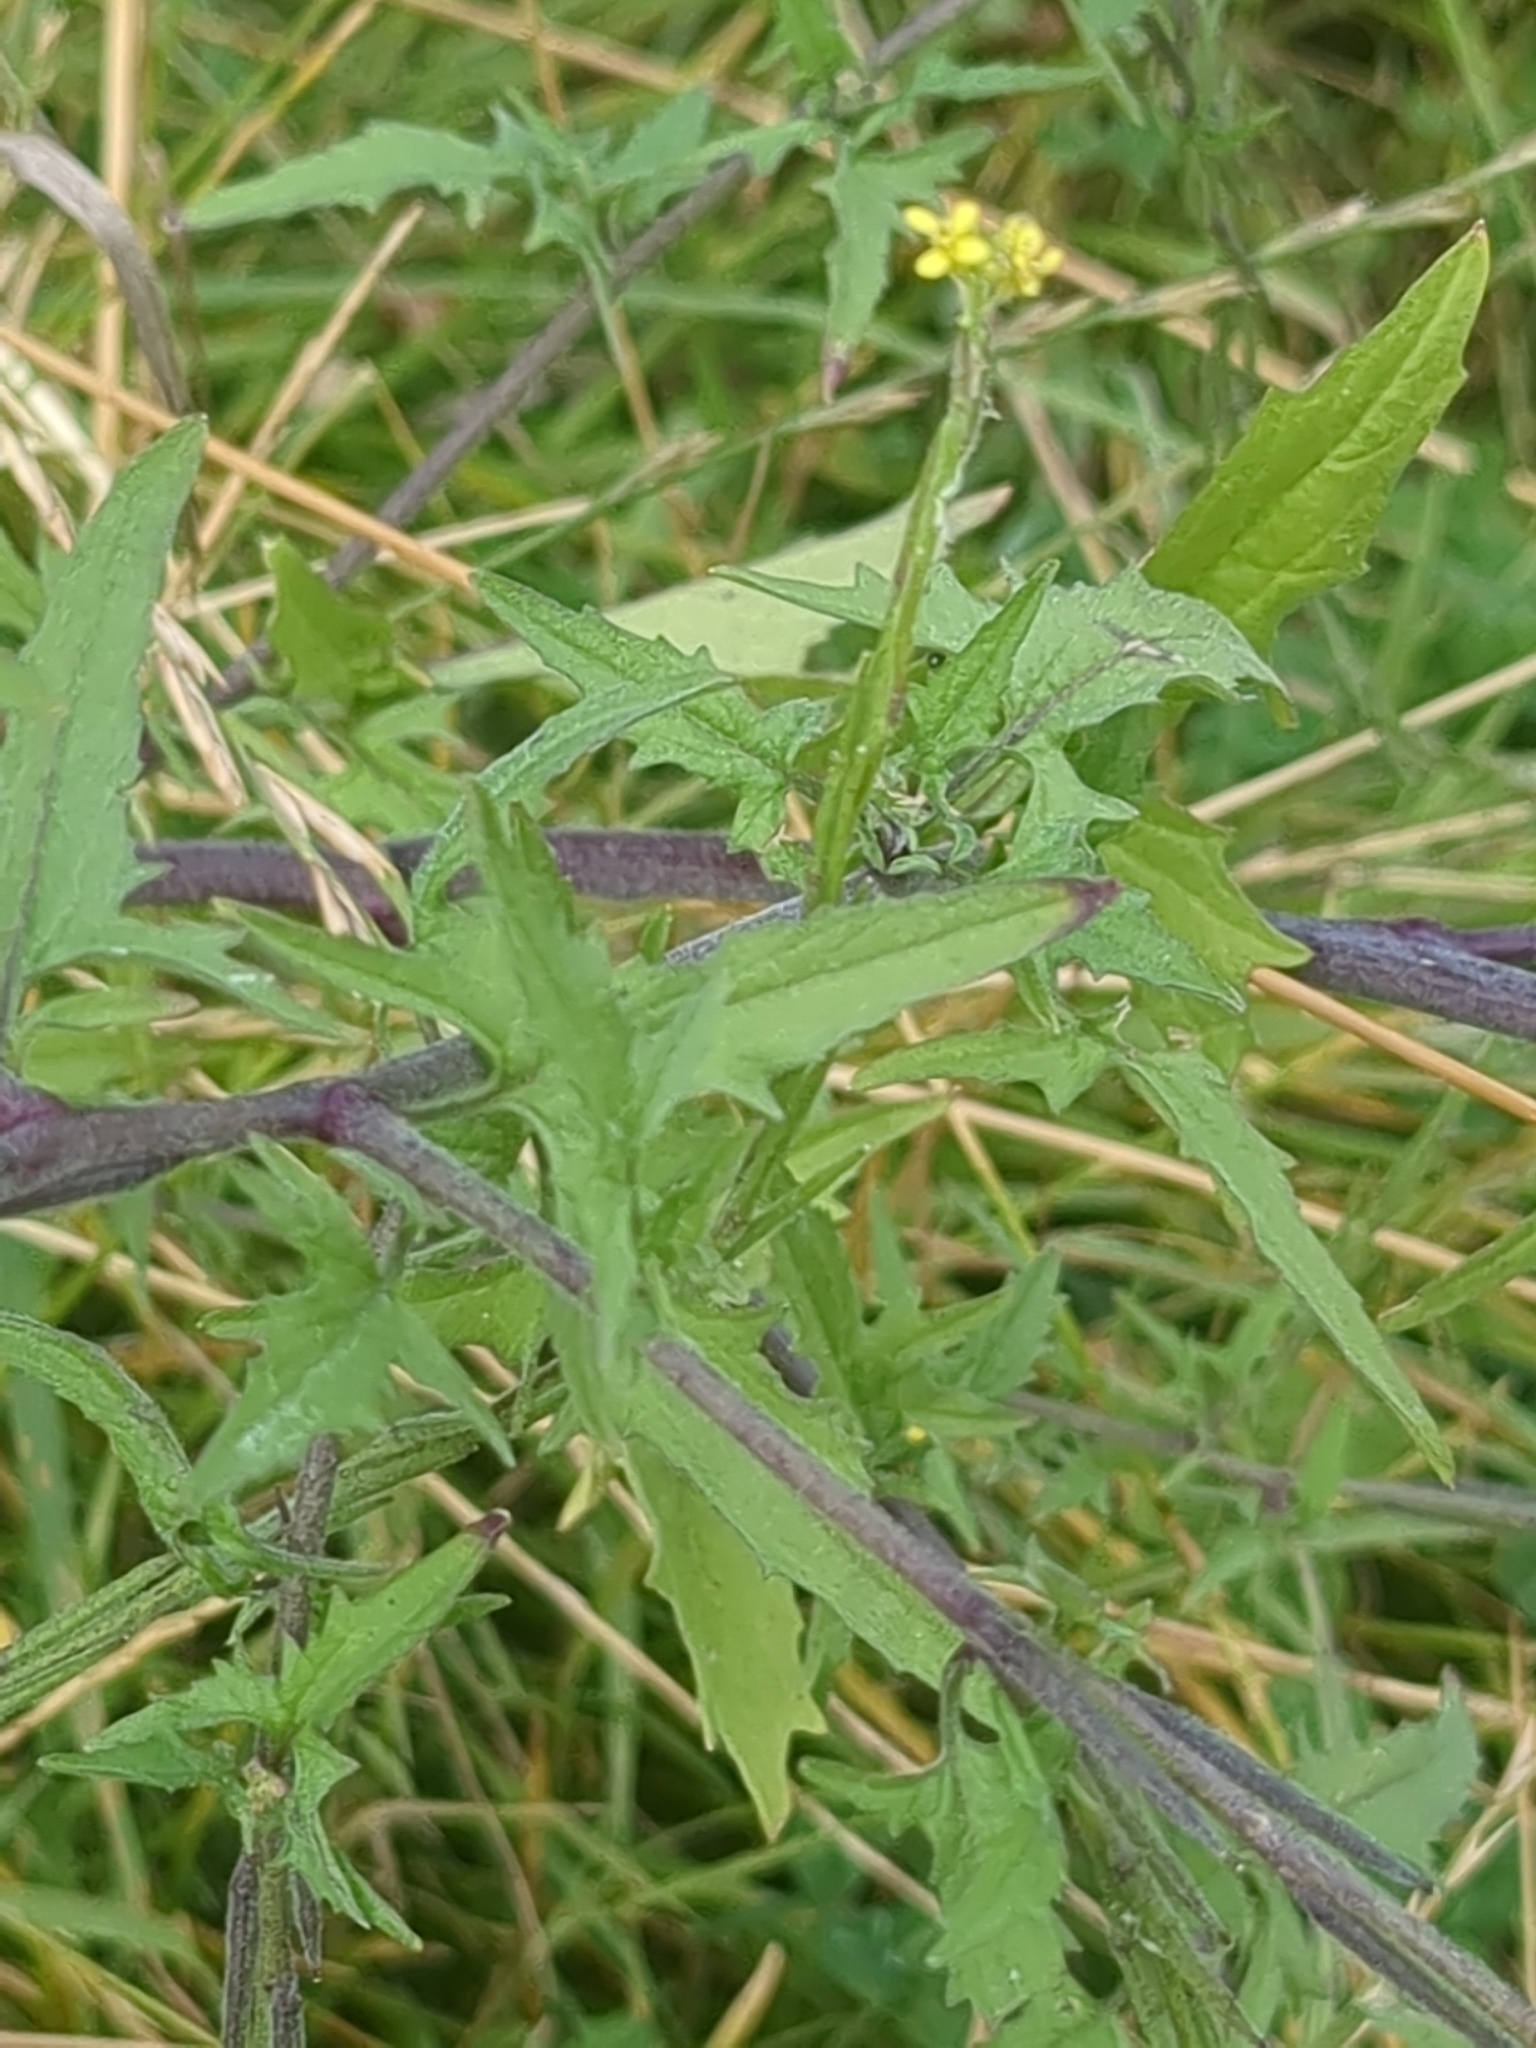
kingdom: Plantae
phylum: Tracheophyta
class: Magnoliopsida
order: Brassicales
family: Brassicaceae
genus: Sisymbrium
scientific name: Sisymbrium officinale
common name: Hedge mustard
